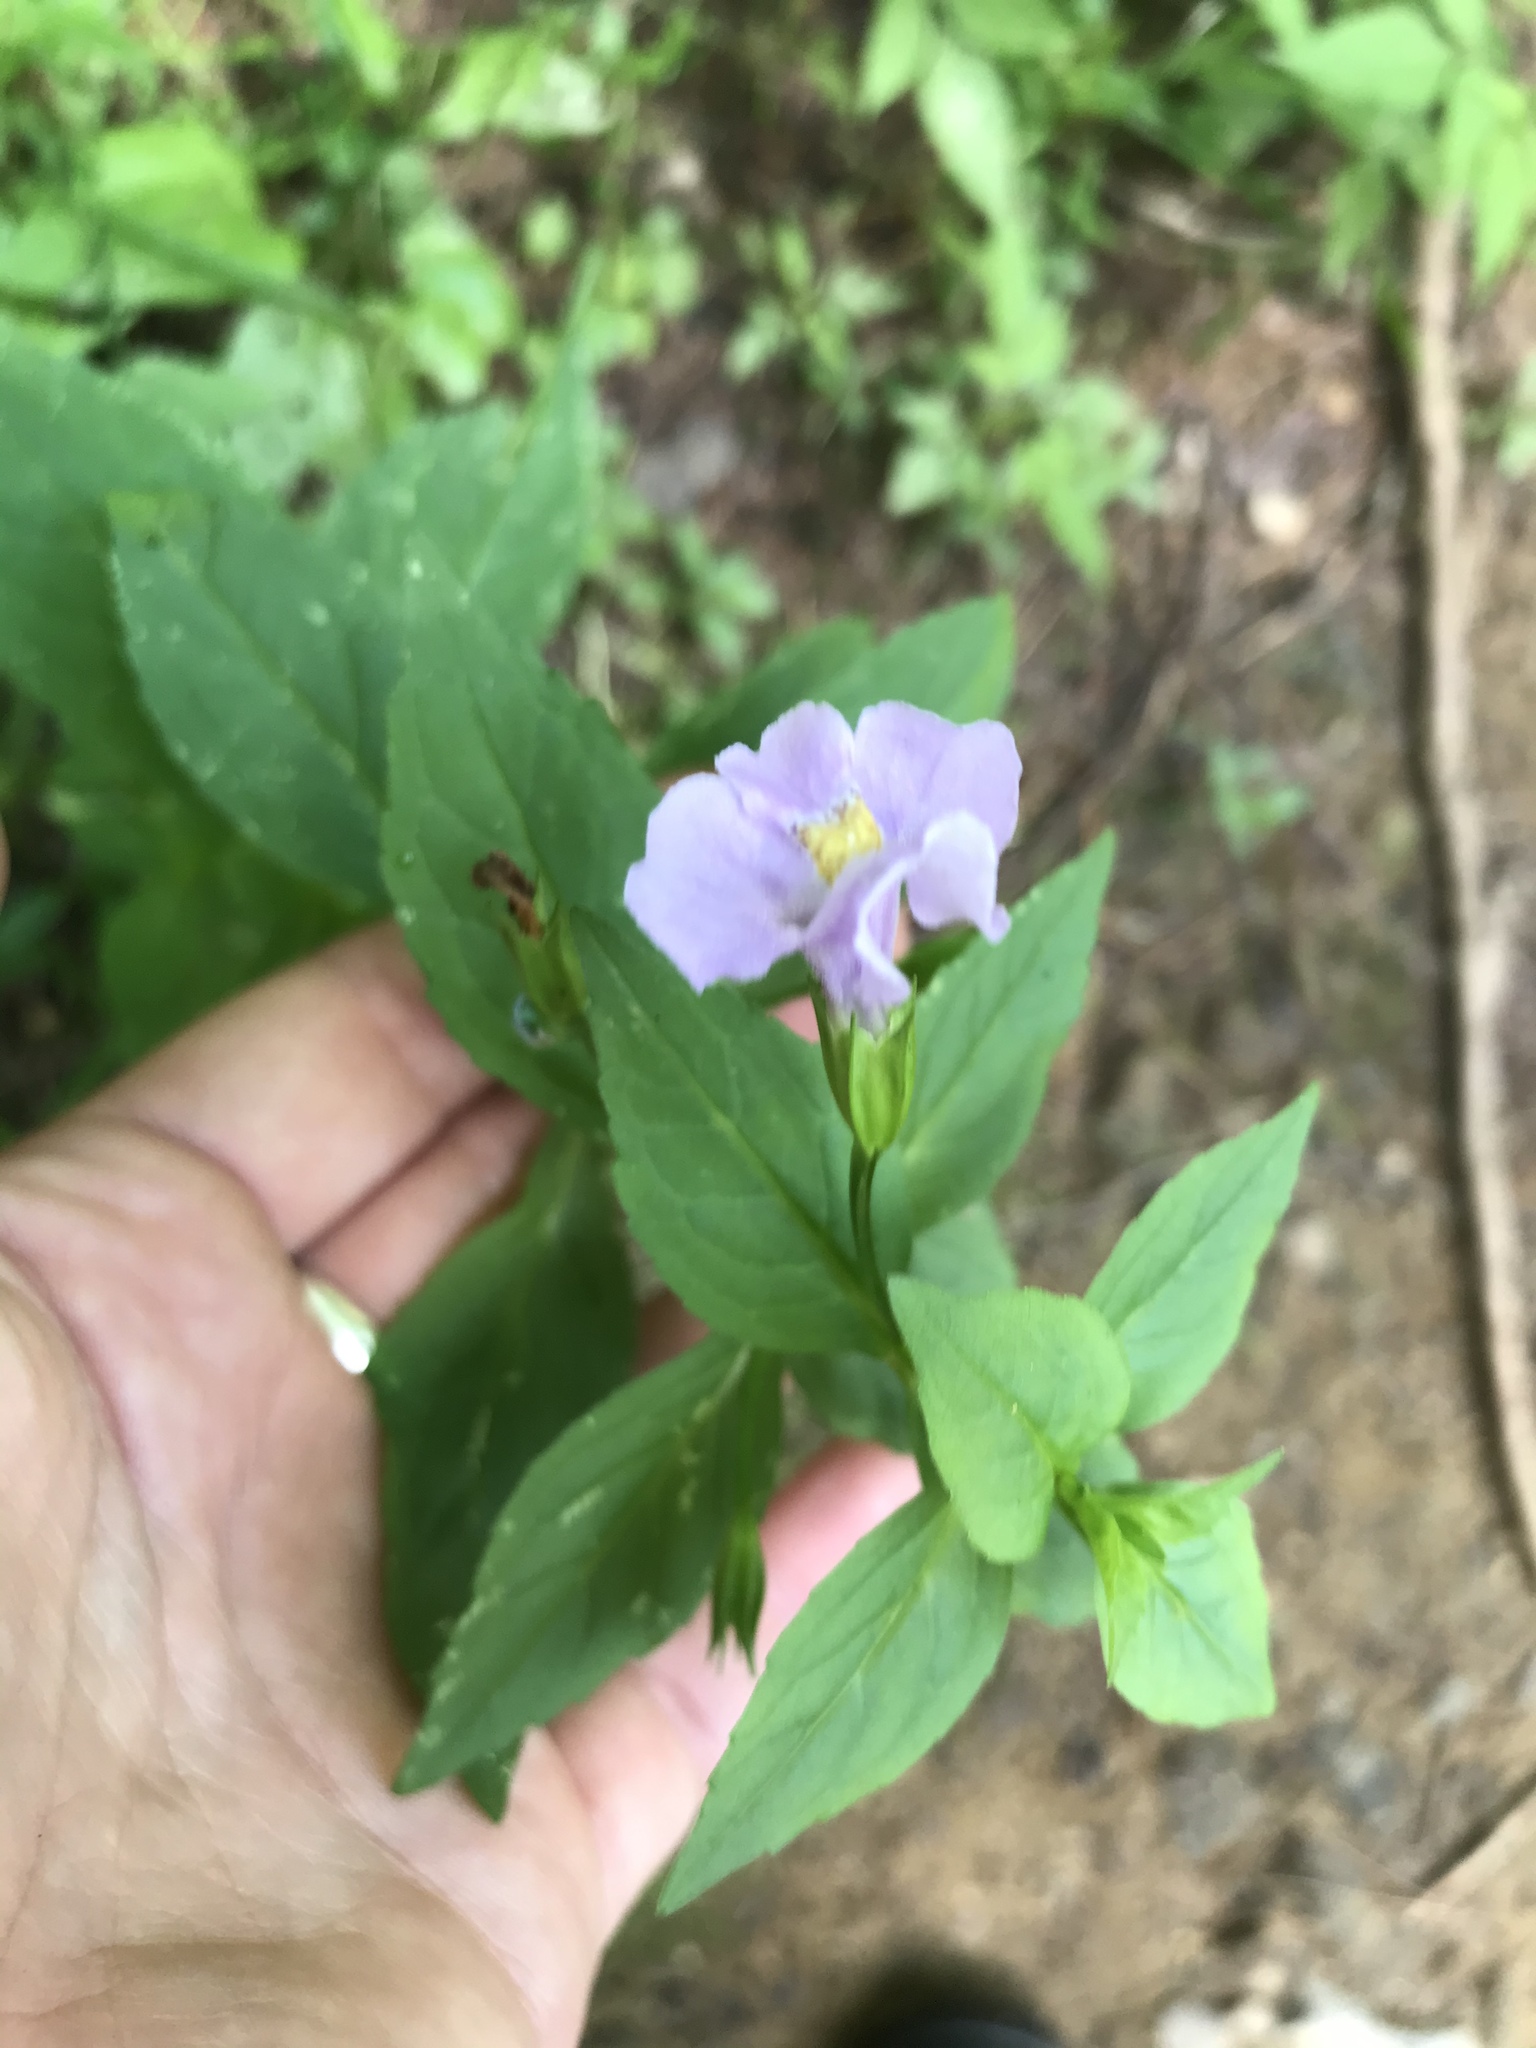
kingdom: Plantae
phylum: Tracheophyta
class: Magnoliopsida
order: Lamiales
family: Phrymaceae
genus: Mimulus
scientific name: Mimulus ringens
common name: Allegheny monkeyflower
